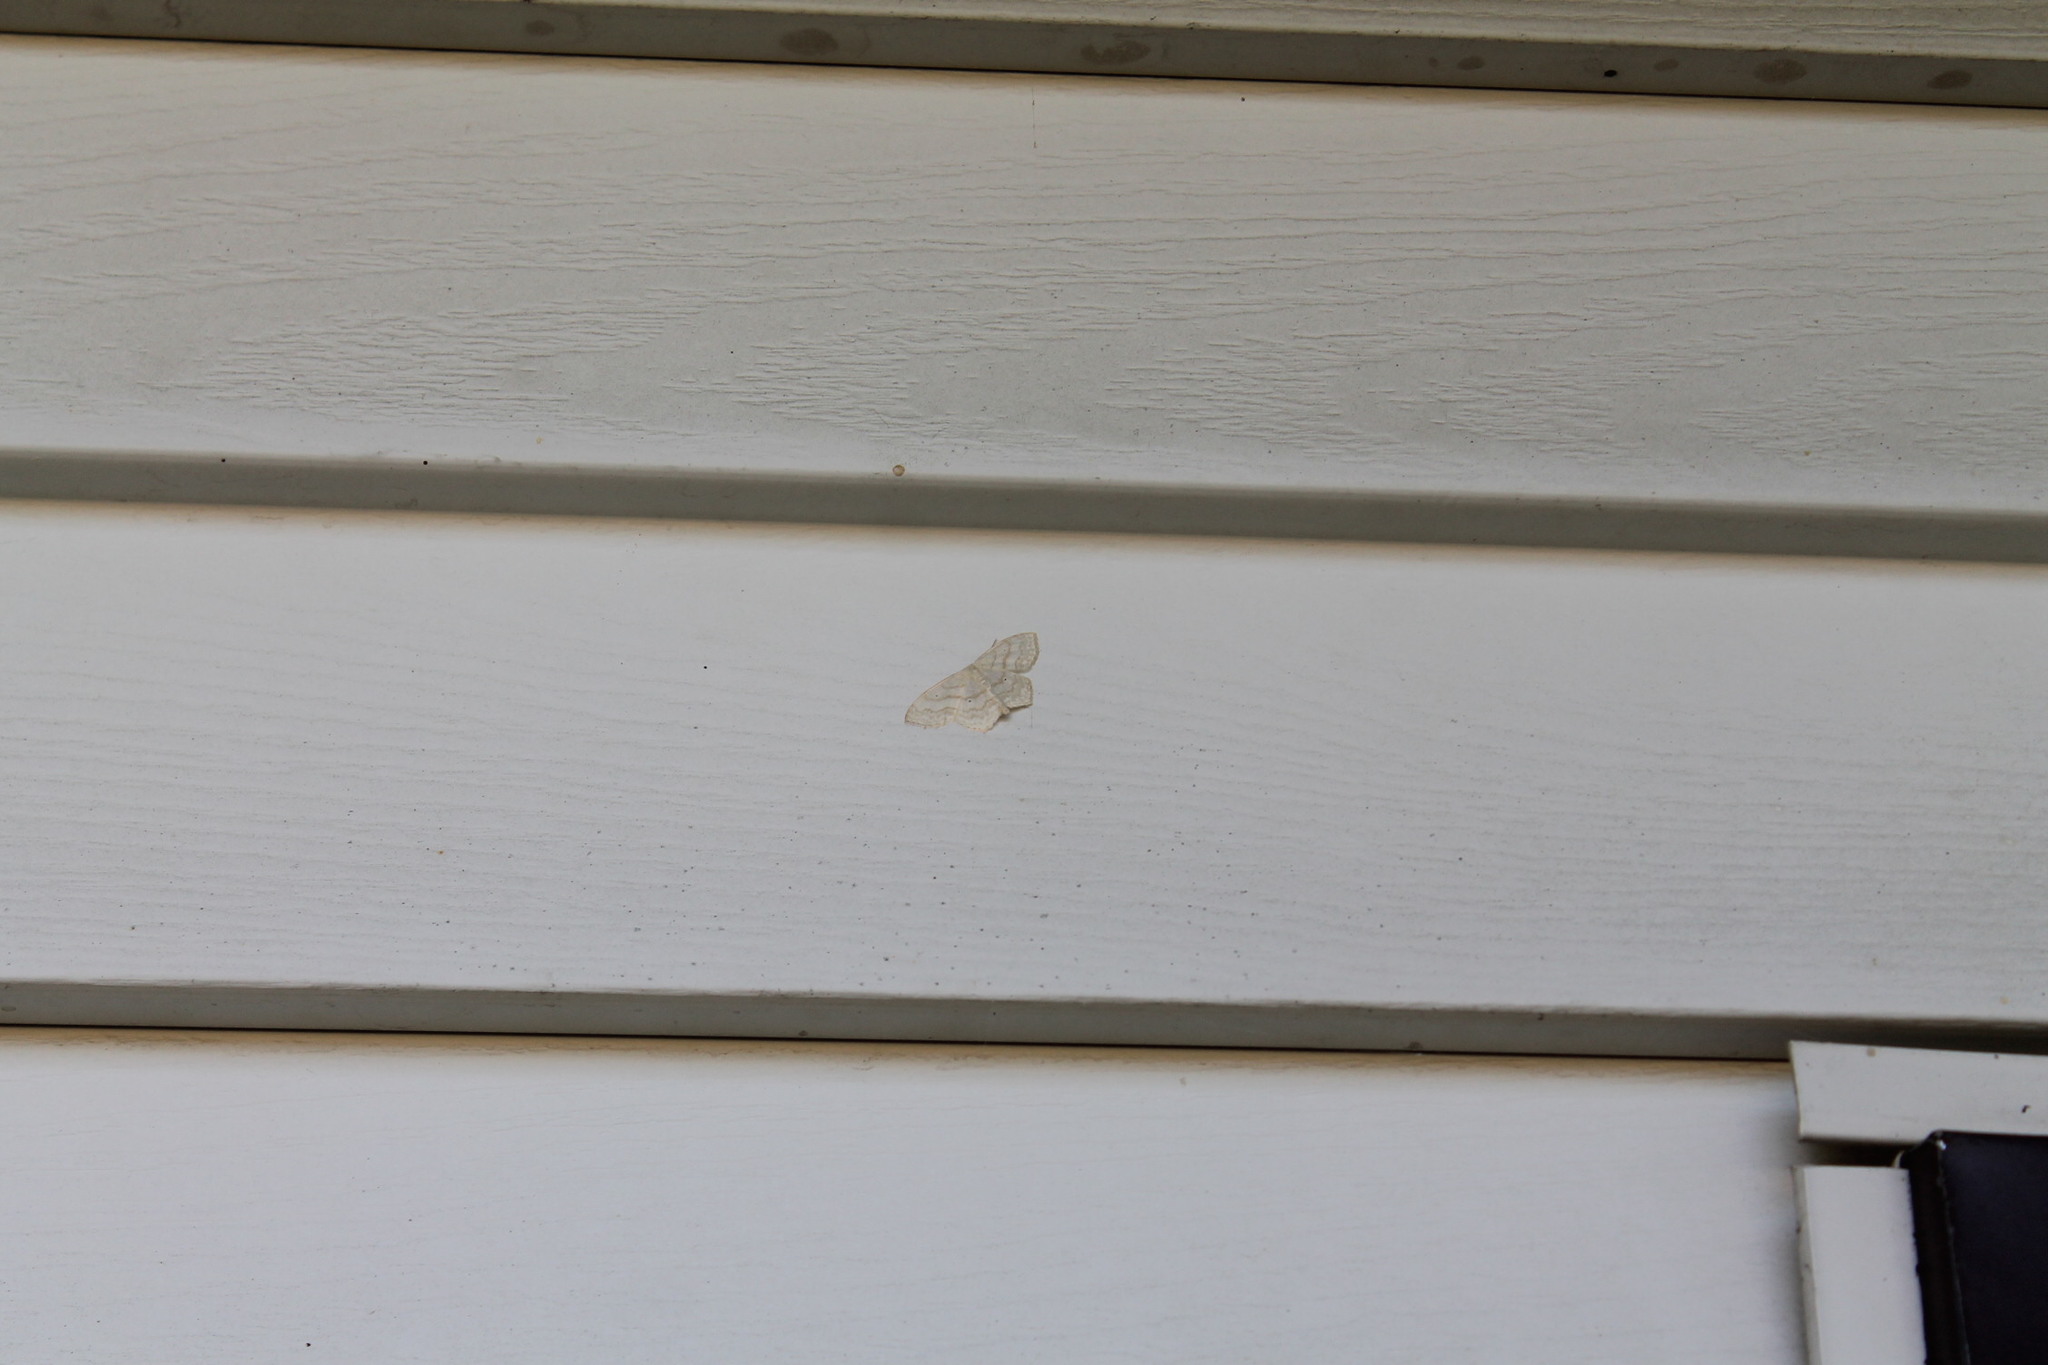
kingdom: Animalia
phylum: Arthropoda
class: Insecta
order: Lepidoptera
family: Geometridae
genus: Scopula
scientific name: Scopula inductata
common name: Soft-lined wave
